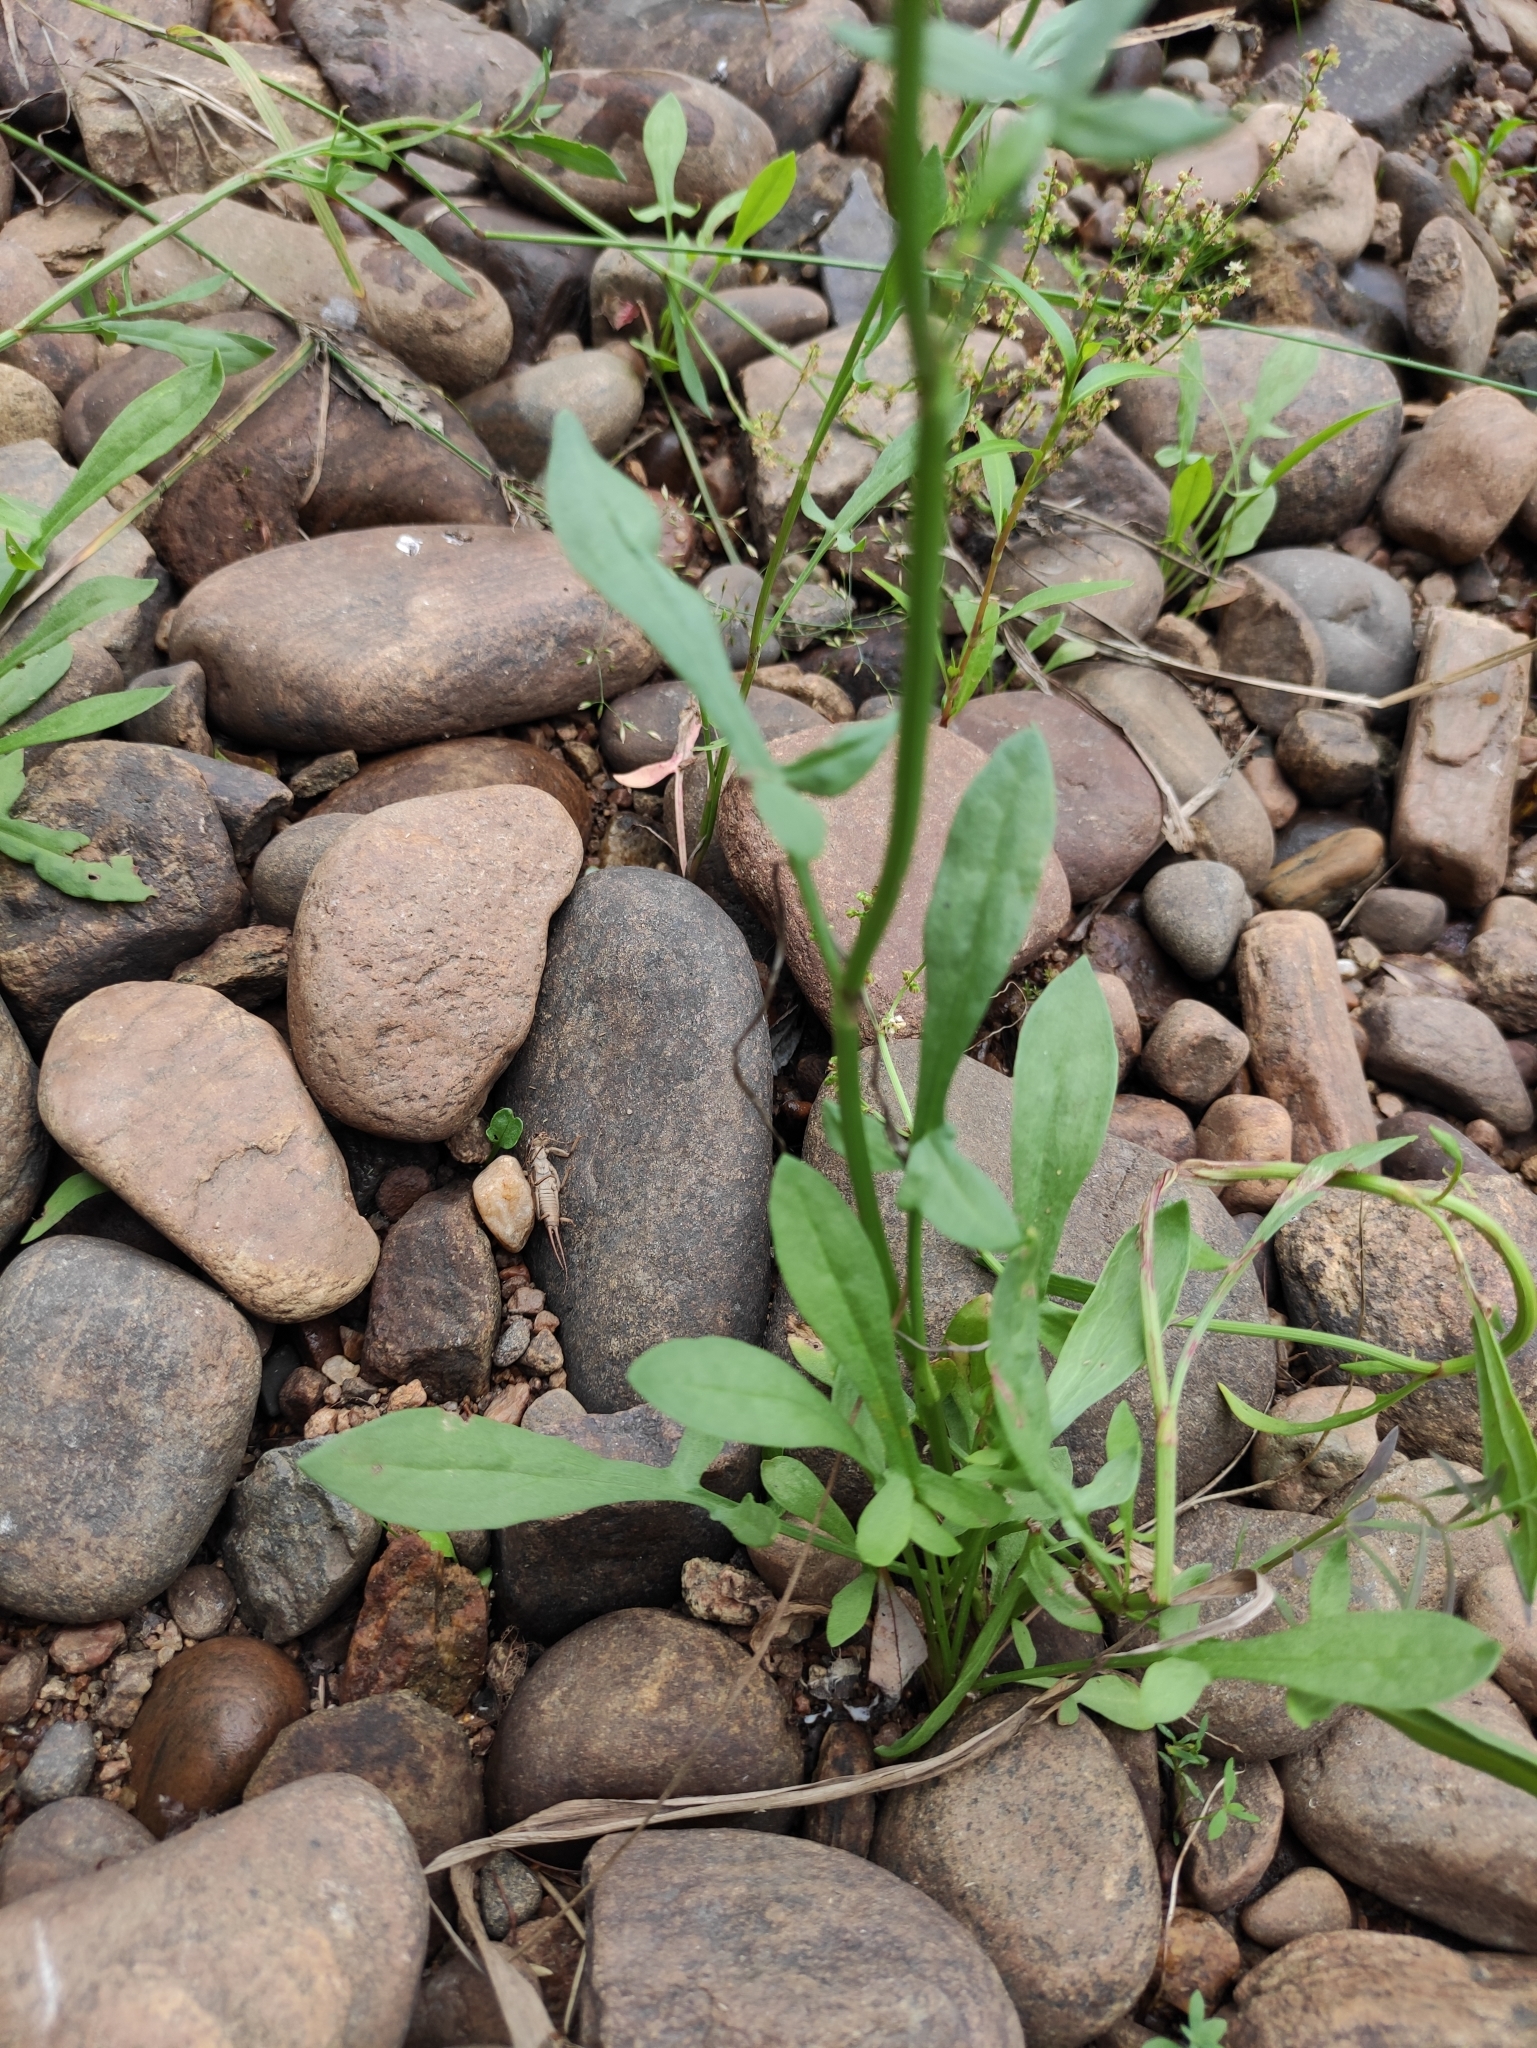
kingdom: Plantae
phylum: Tracheophyta
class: Magnoliopsida
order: Caryophyllales
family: Polygonaceae
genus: Rumex
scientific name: Rumex acetosella
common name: Common sheep sorrel
